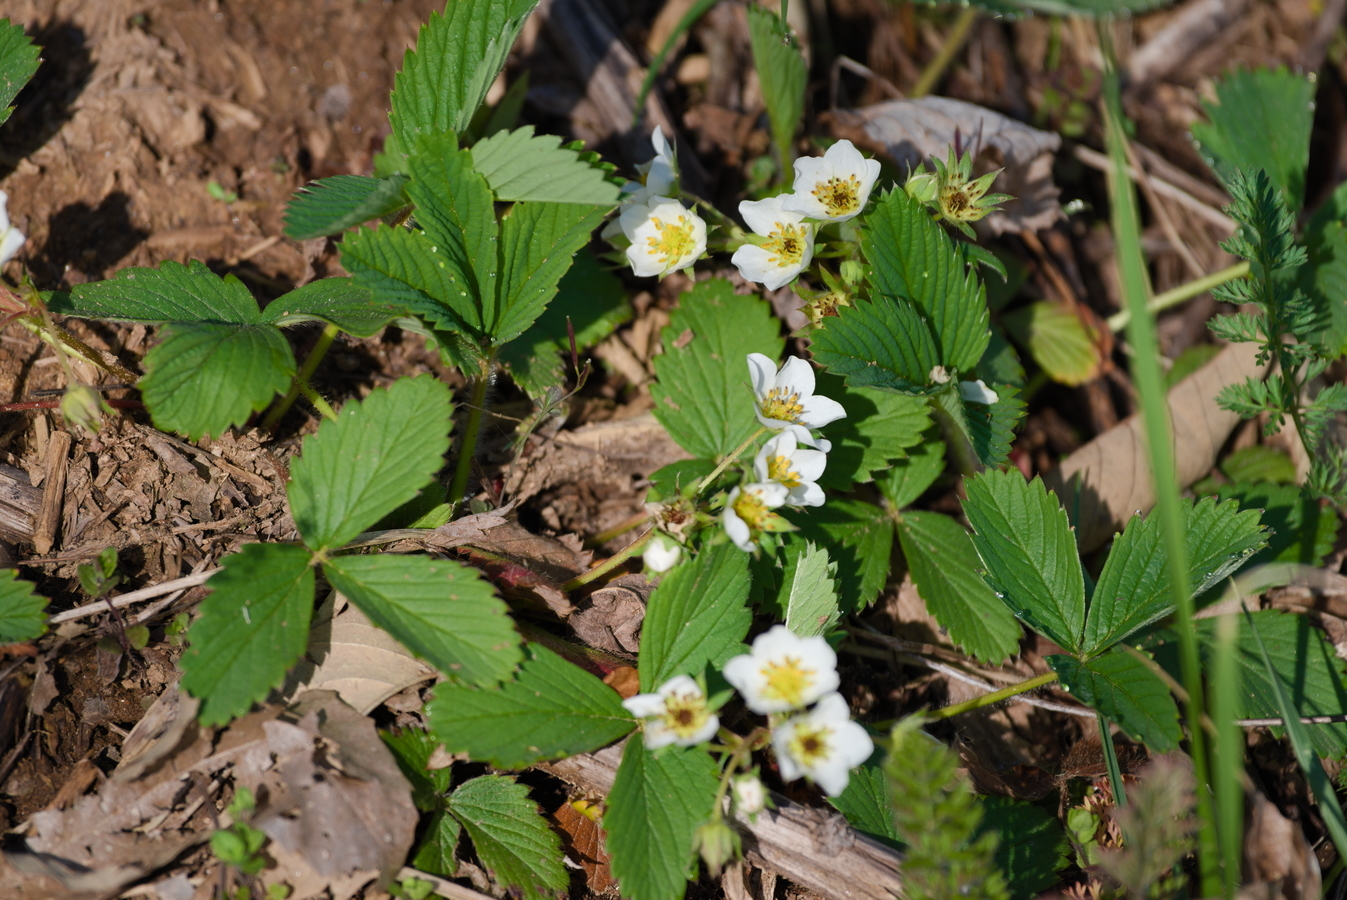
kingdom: Plantae
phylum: Tracheophyta
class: Magnoliopsida
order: Rosales
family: Rosaceae
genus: Fragaria
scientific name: Fragaria virginiana
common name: Thickleaved wild strawberry
